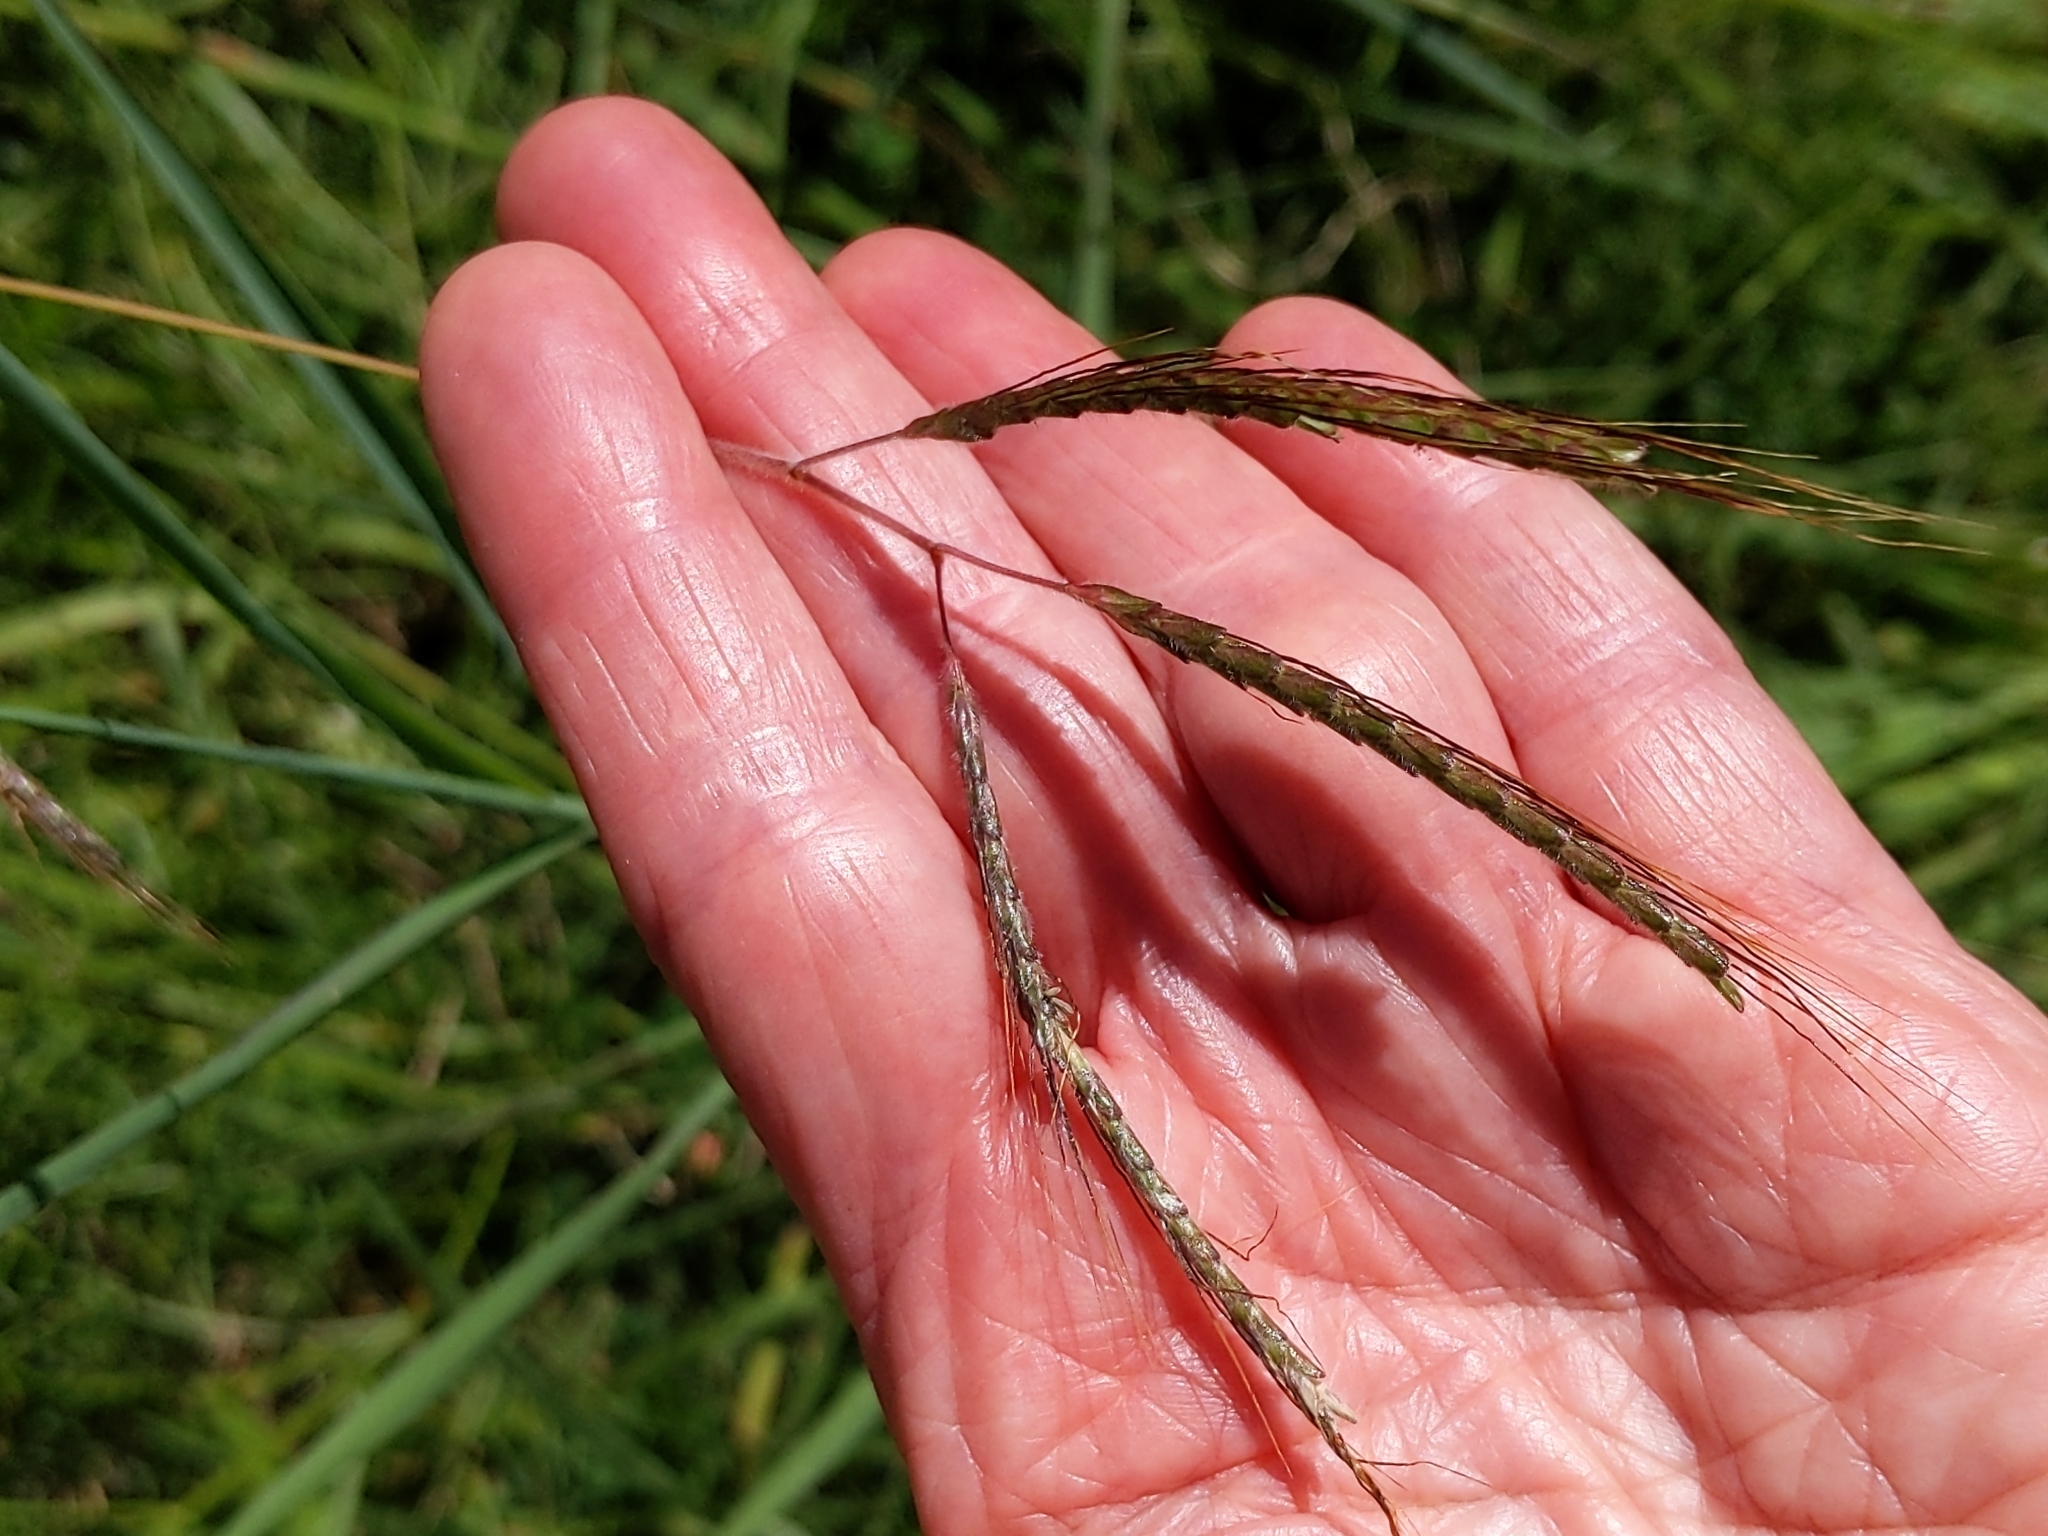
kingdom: Plantae
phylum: Tracheophyta
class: Liliopsida
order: Poales
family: Poaceae
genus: Dichanthium
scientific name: Dichanthium aristatum
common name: Angleton bluestem
